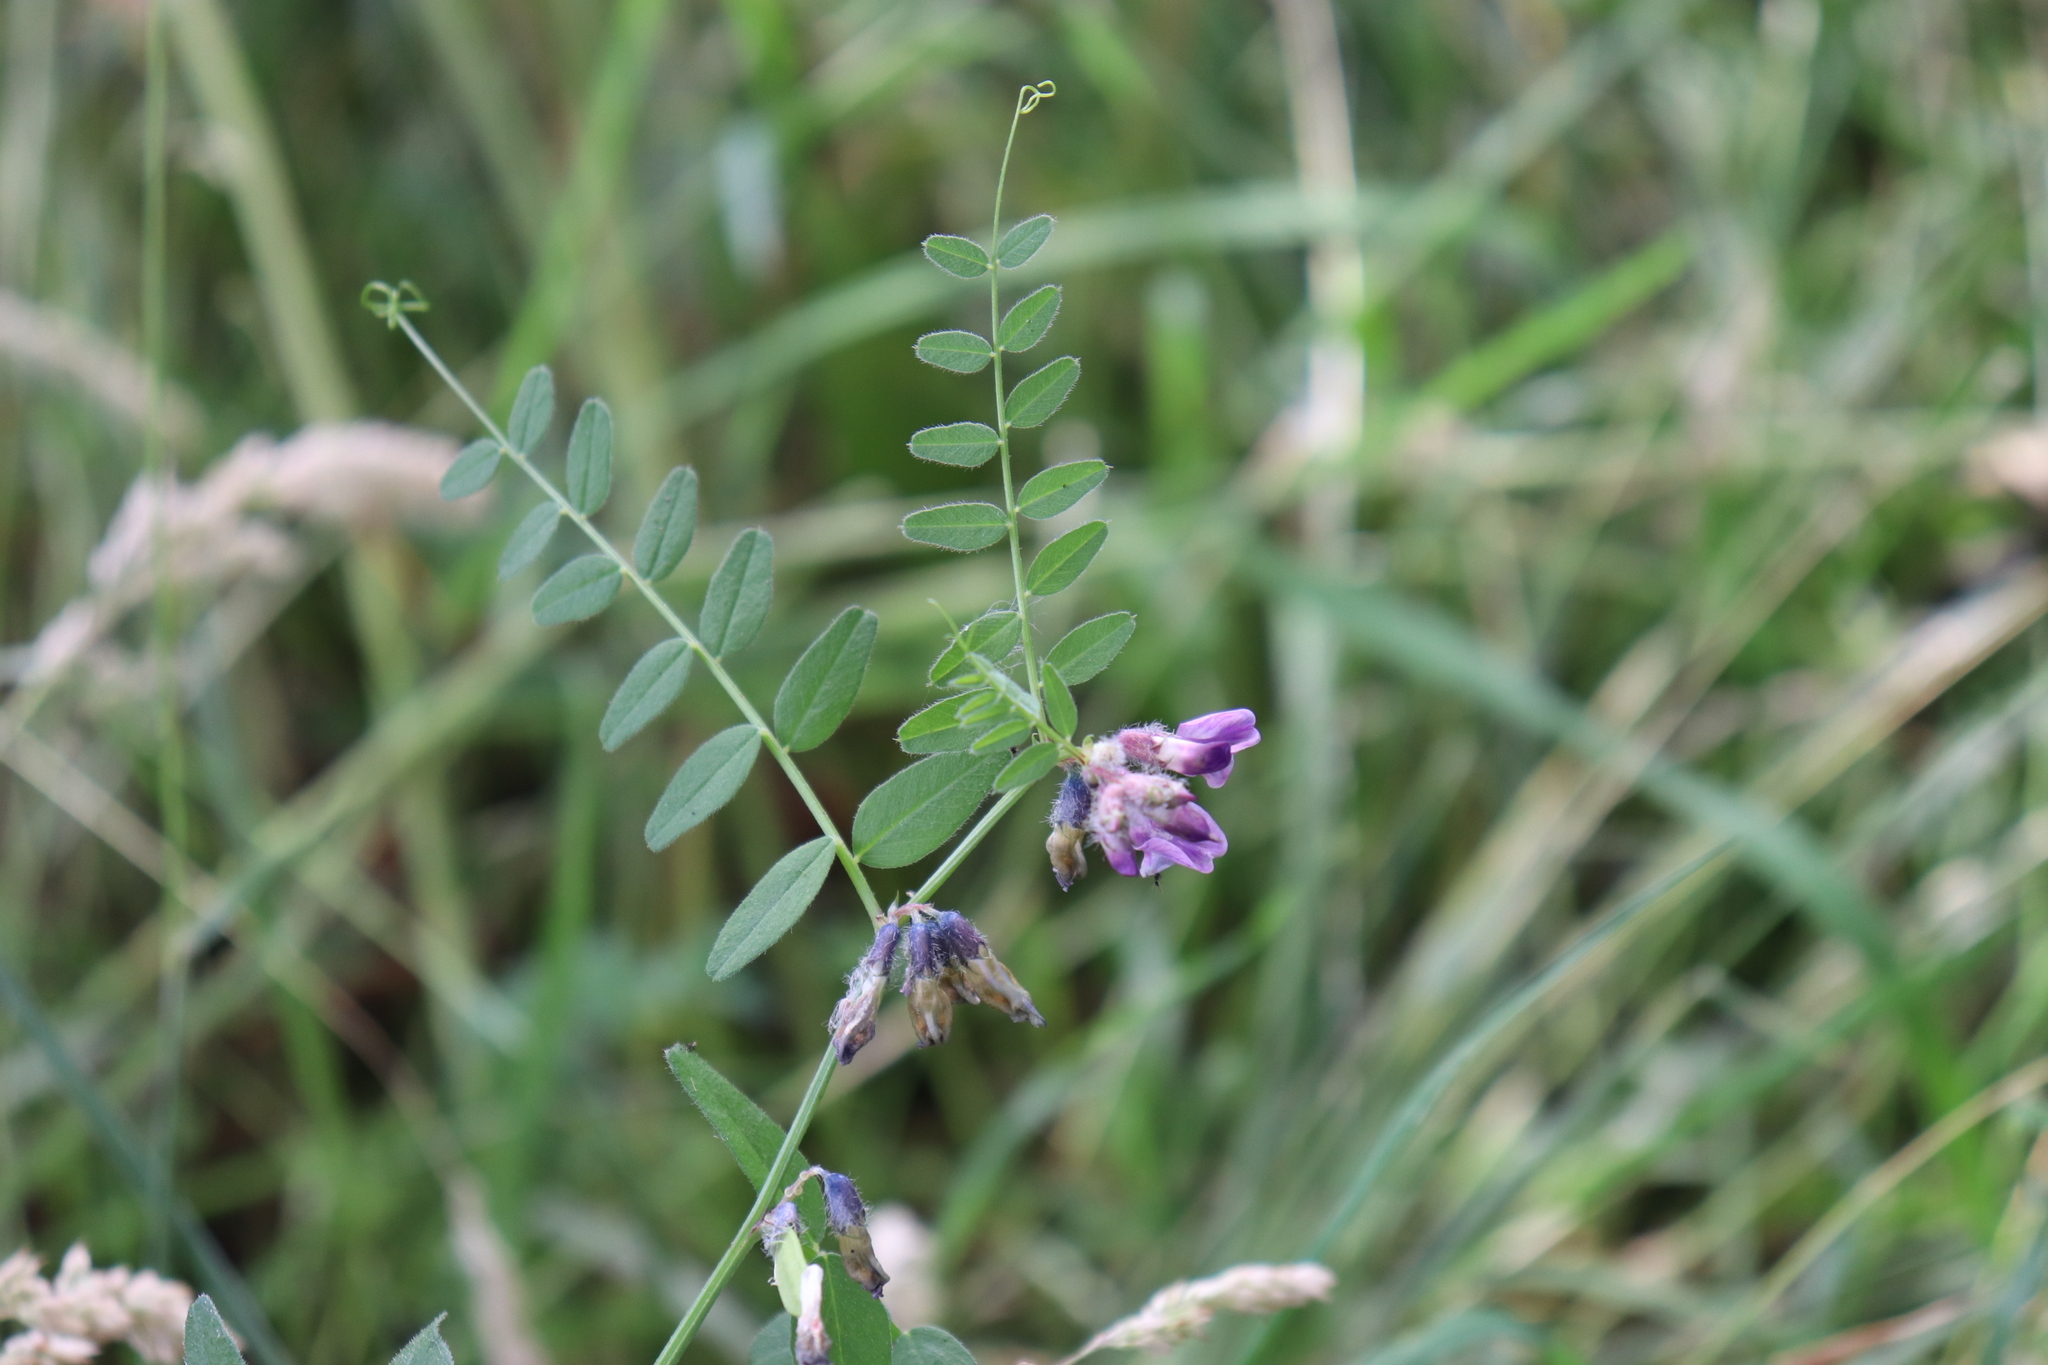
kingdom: Plantae
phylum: Tracheophyta
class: Magnoliopsida
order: Fabales
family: Fabaceae
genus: Vicia
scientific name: Vicia sepium
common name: Bush vetch
